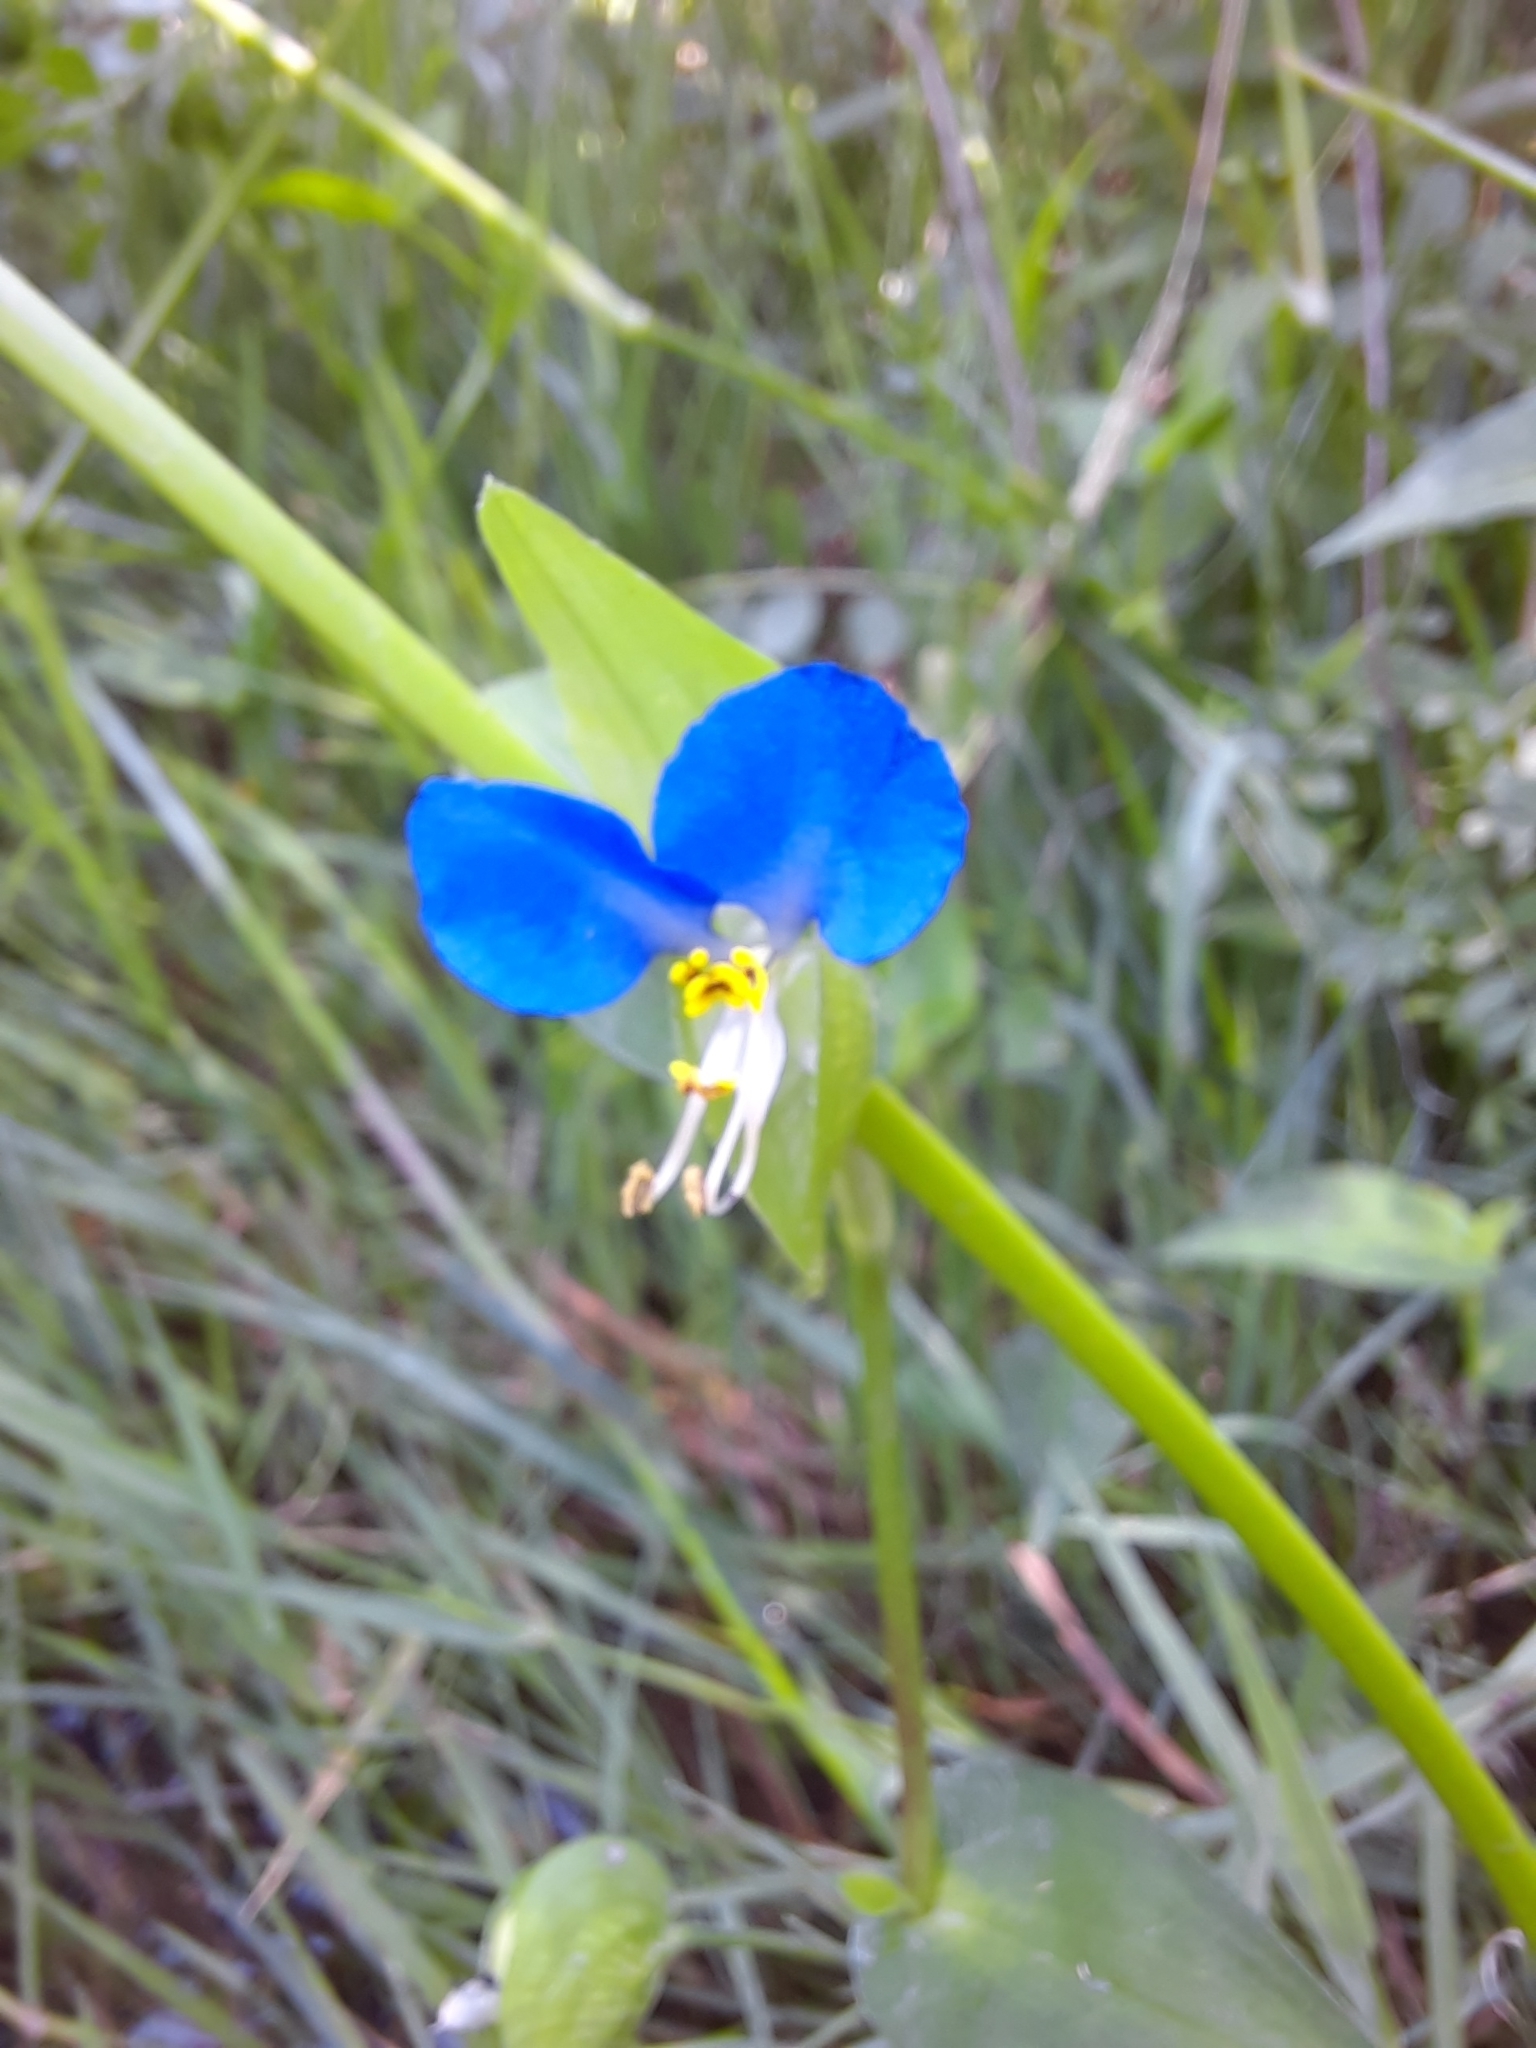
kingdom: Plantae
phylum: Tracheophyta
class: Liliopsida
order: Commelinales
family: Commelinaceae
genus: Commelina
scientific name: Commelina communis
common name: Asiatic dayflower
